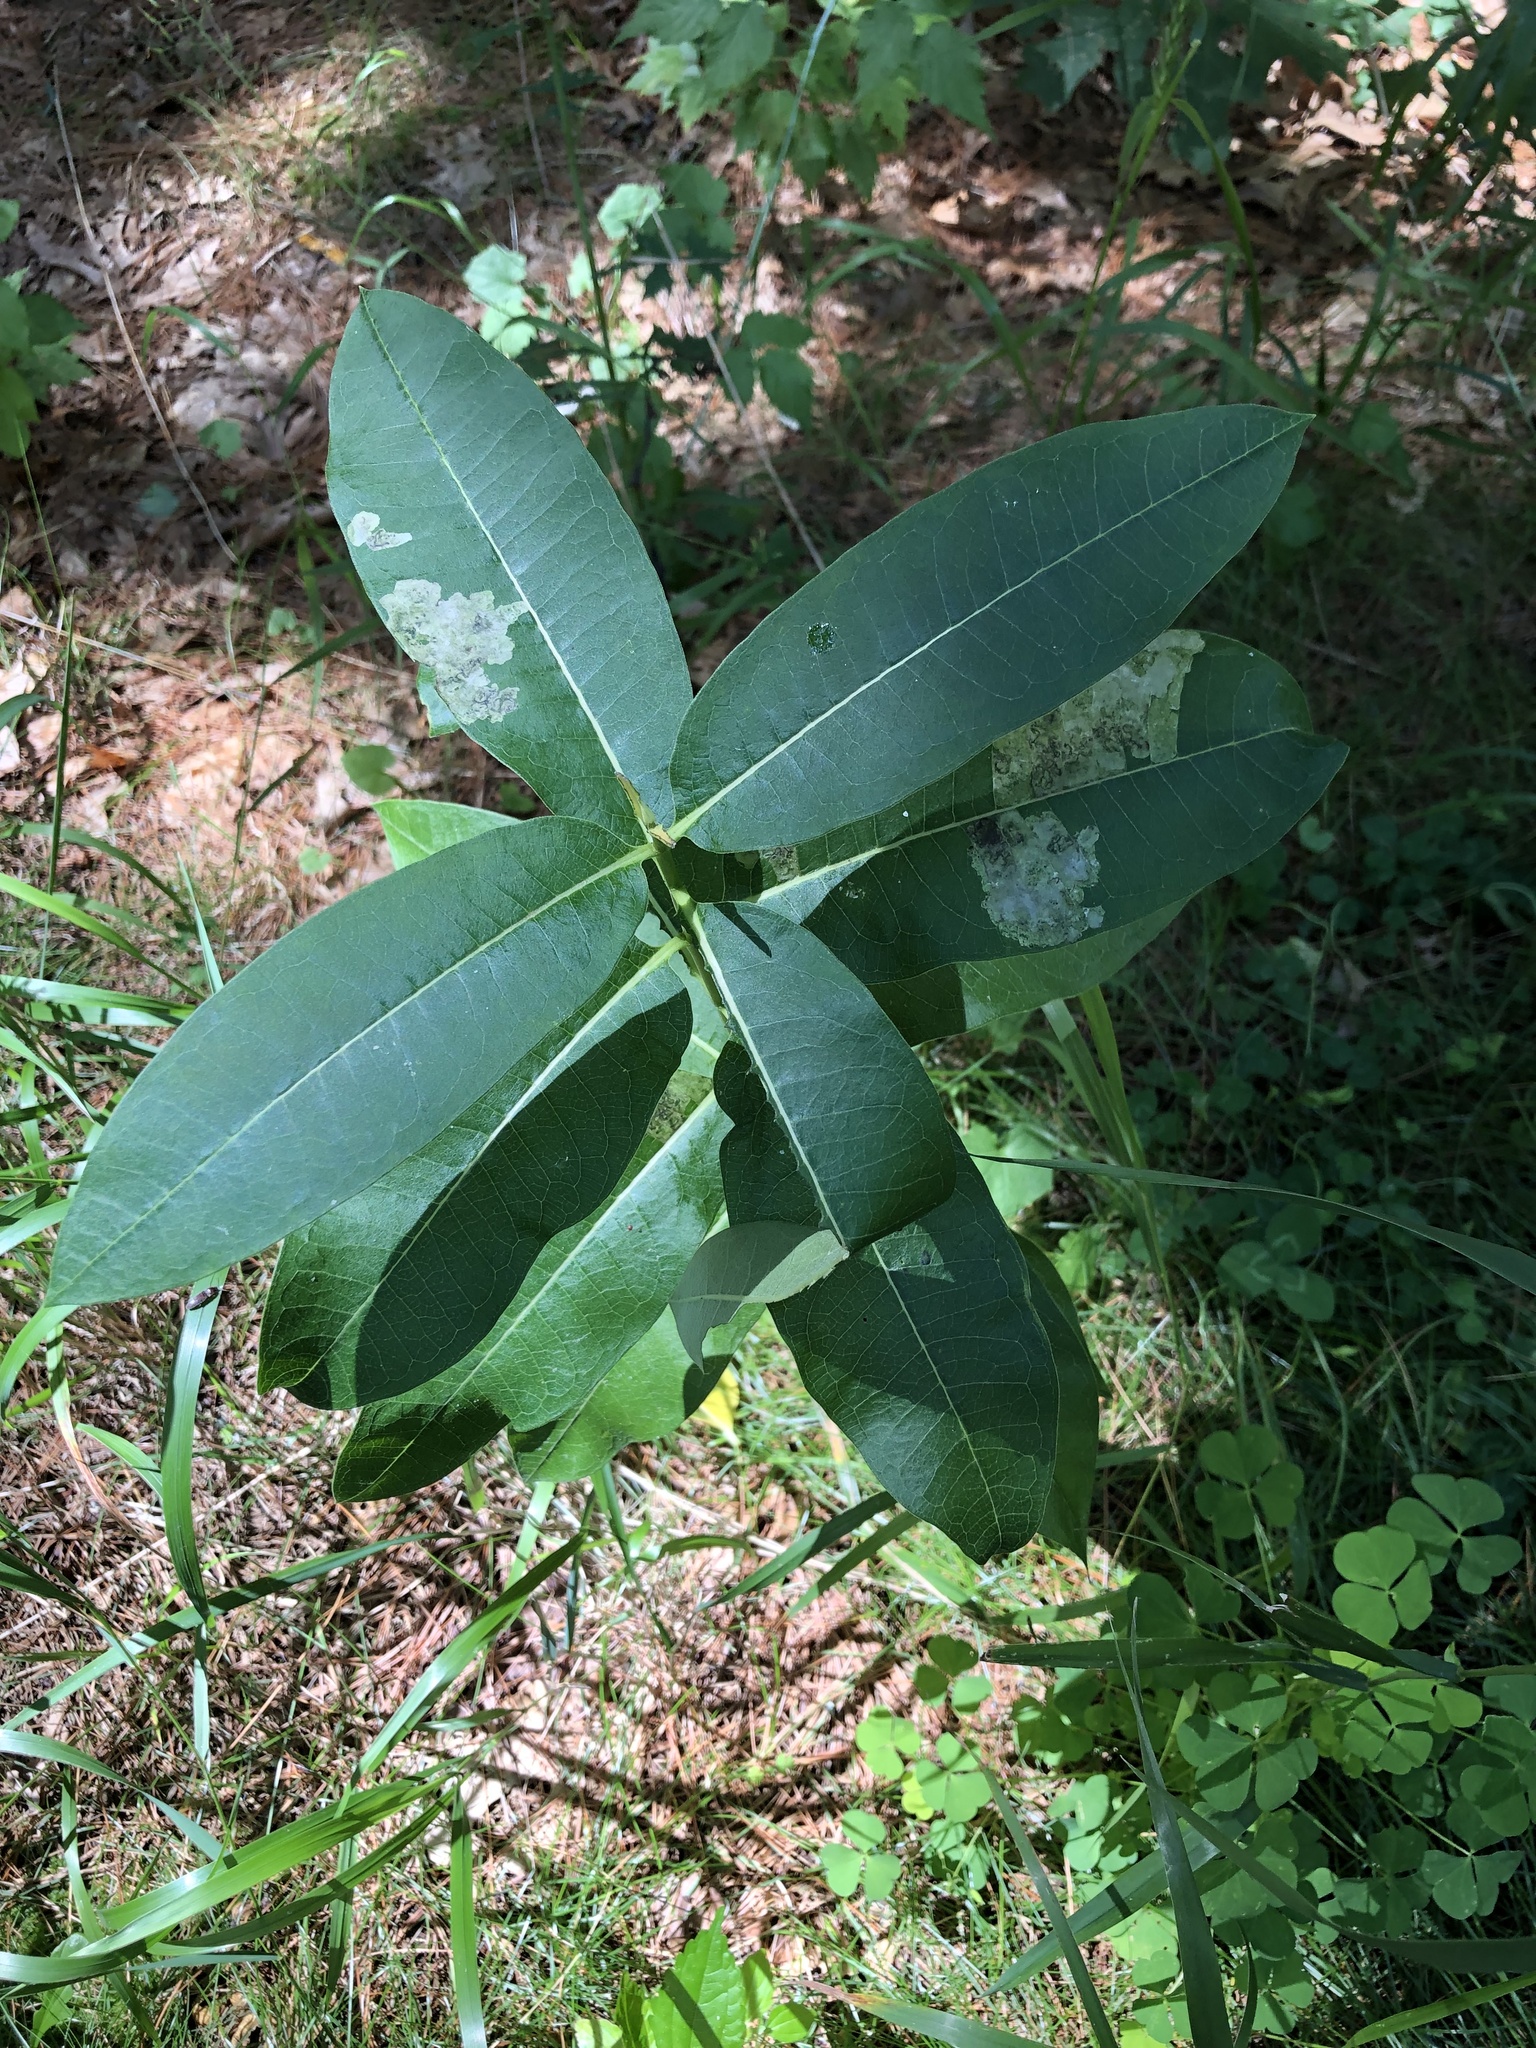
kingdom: Plantae
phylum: Tracheophyta
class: Magnoliopsida
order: Gentianales
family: Apocynaceae
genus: Asclepias
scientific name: Asclepias syriaca
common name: Common milkweed
